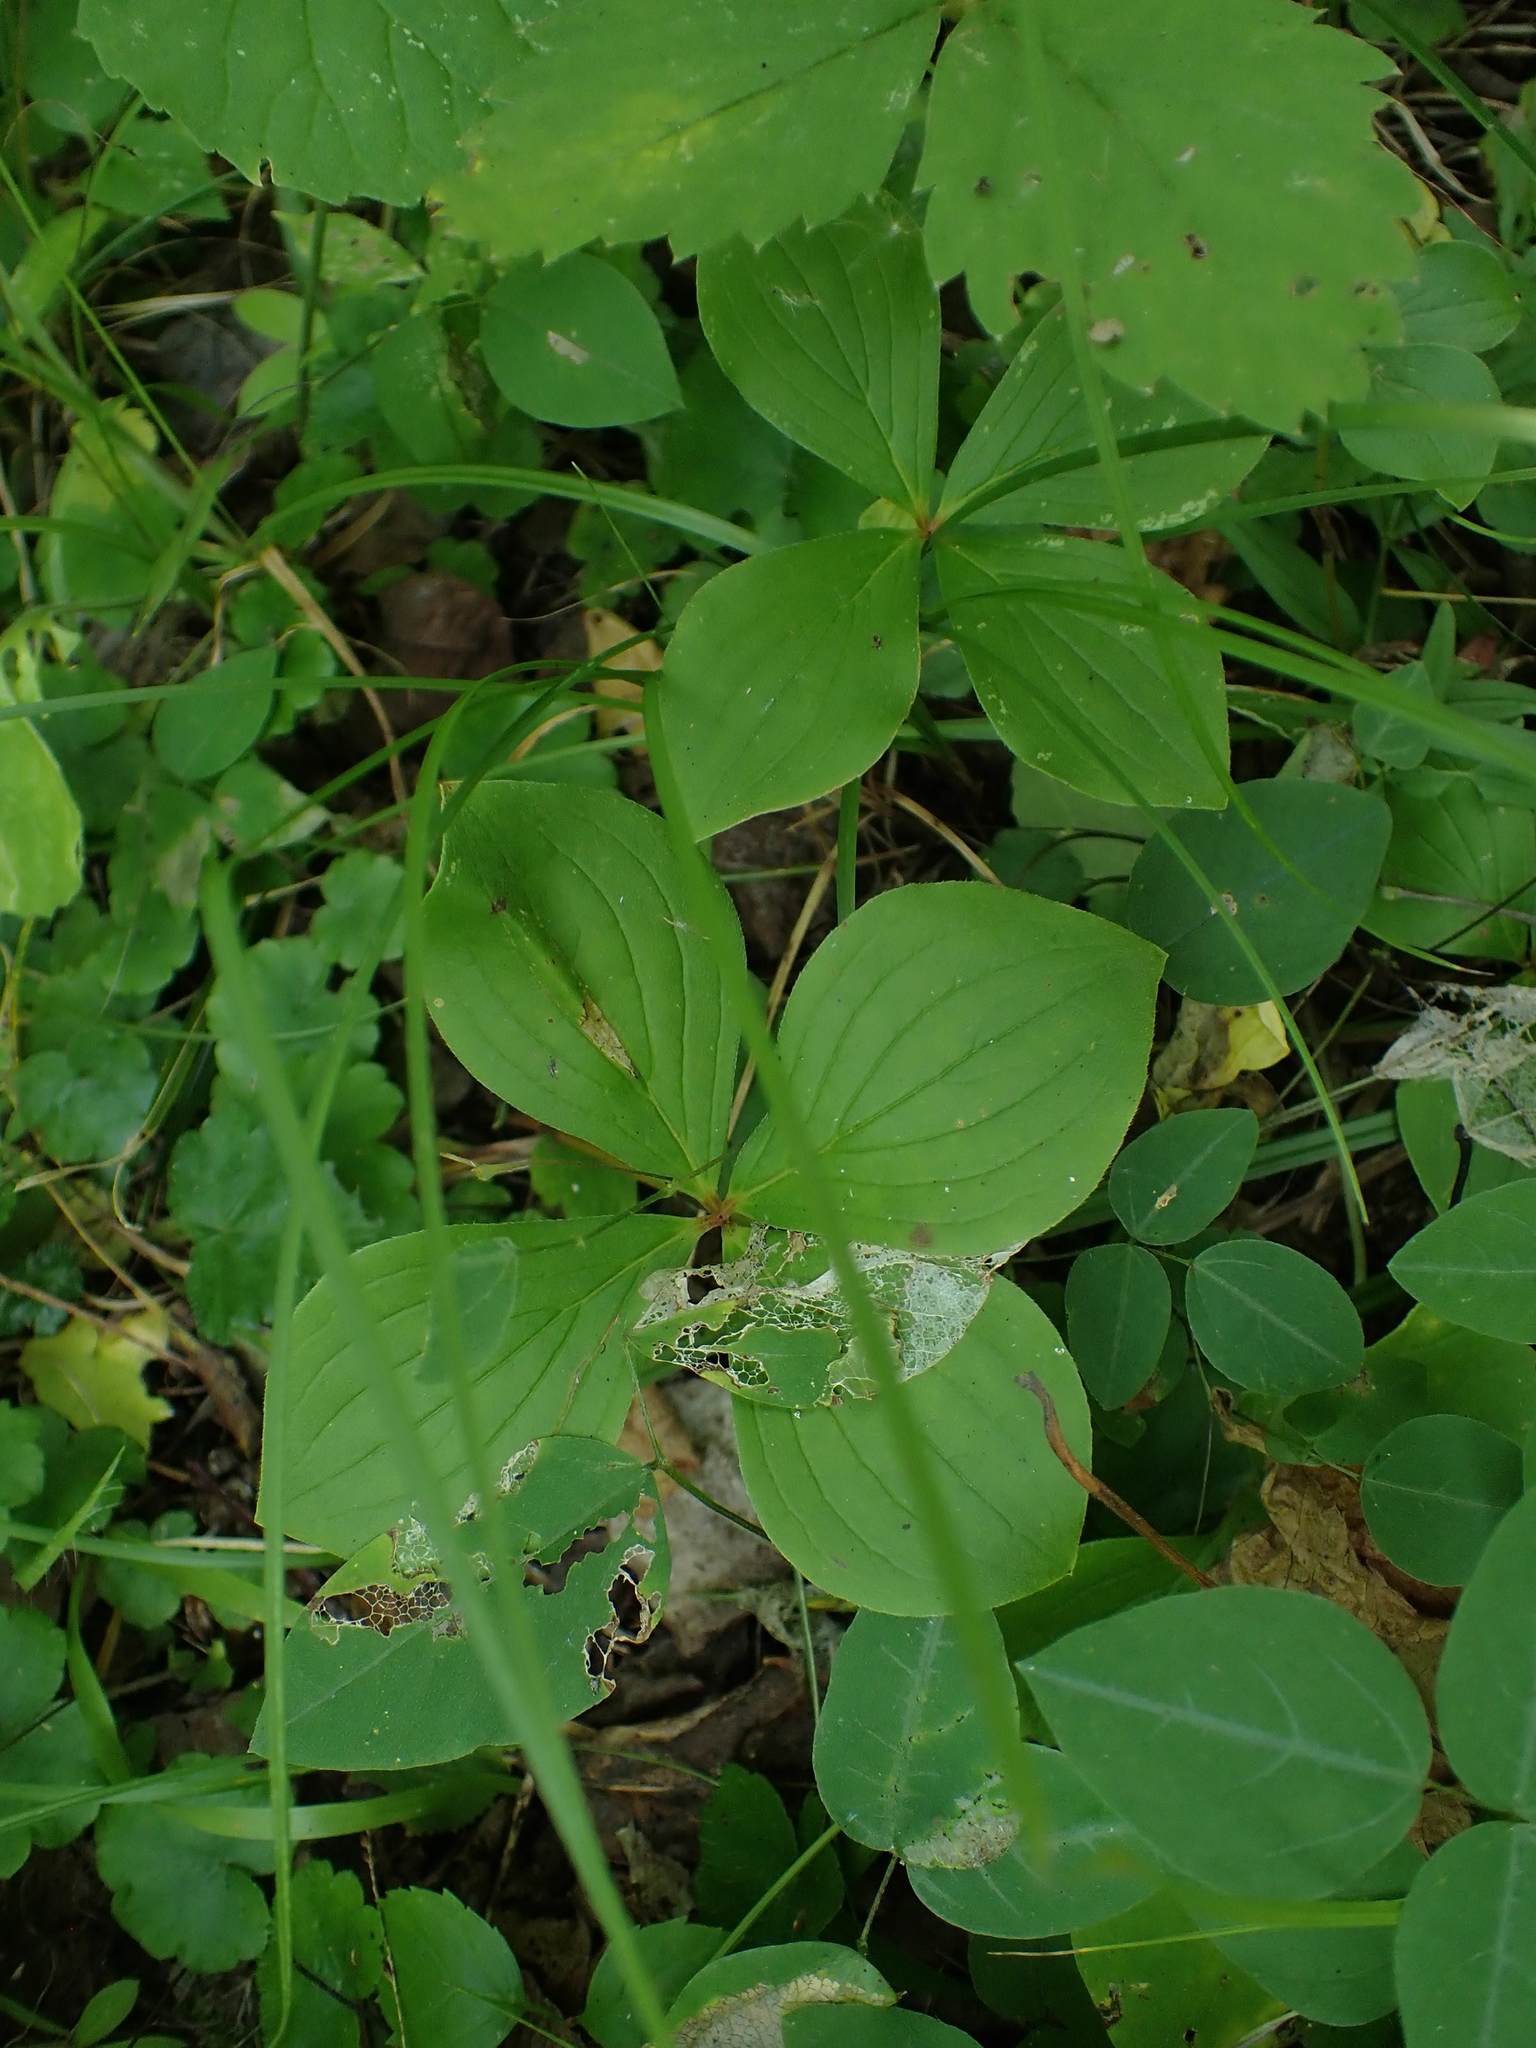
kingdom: Plantae
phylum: Tracheophyta
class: Magnoliopsida
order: Cornales
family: Cornaceae
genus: Cornus
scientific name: Cornus canadensis
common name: Creeping dogwood
